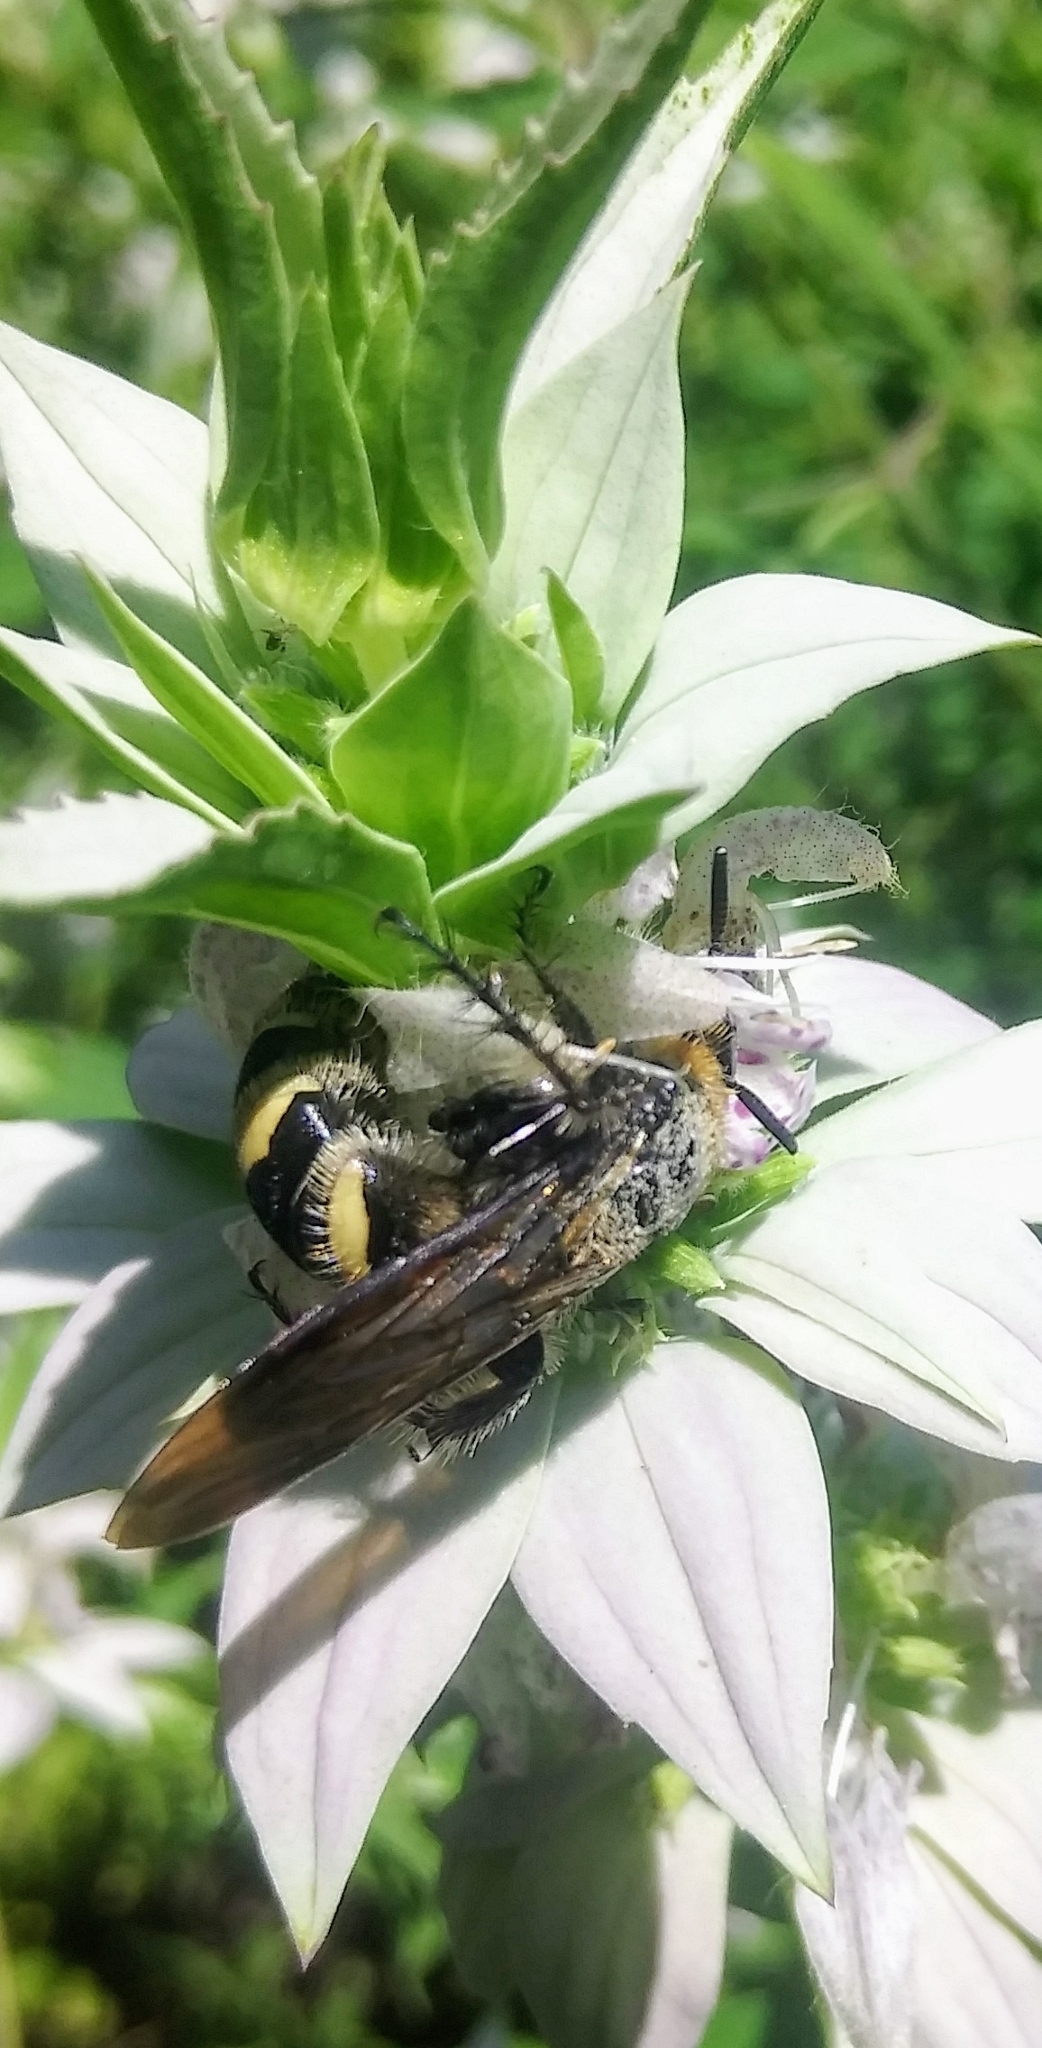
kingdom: Animalia
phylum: Arthropoda
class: Insecta
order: Hymenoptera
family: Scoliidae
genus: Dielis
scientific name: Dielis
